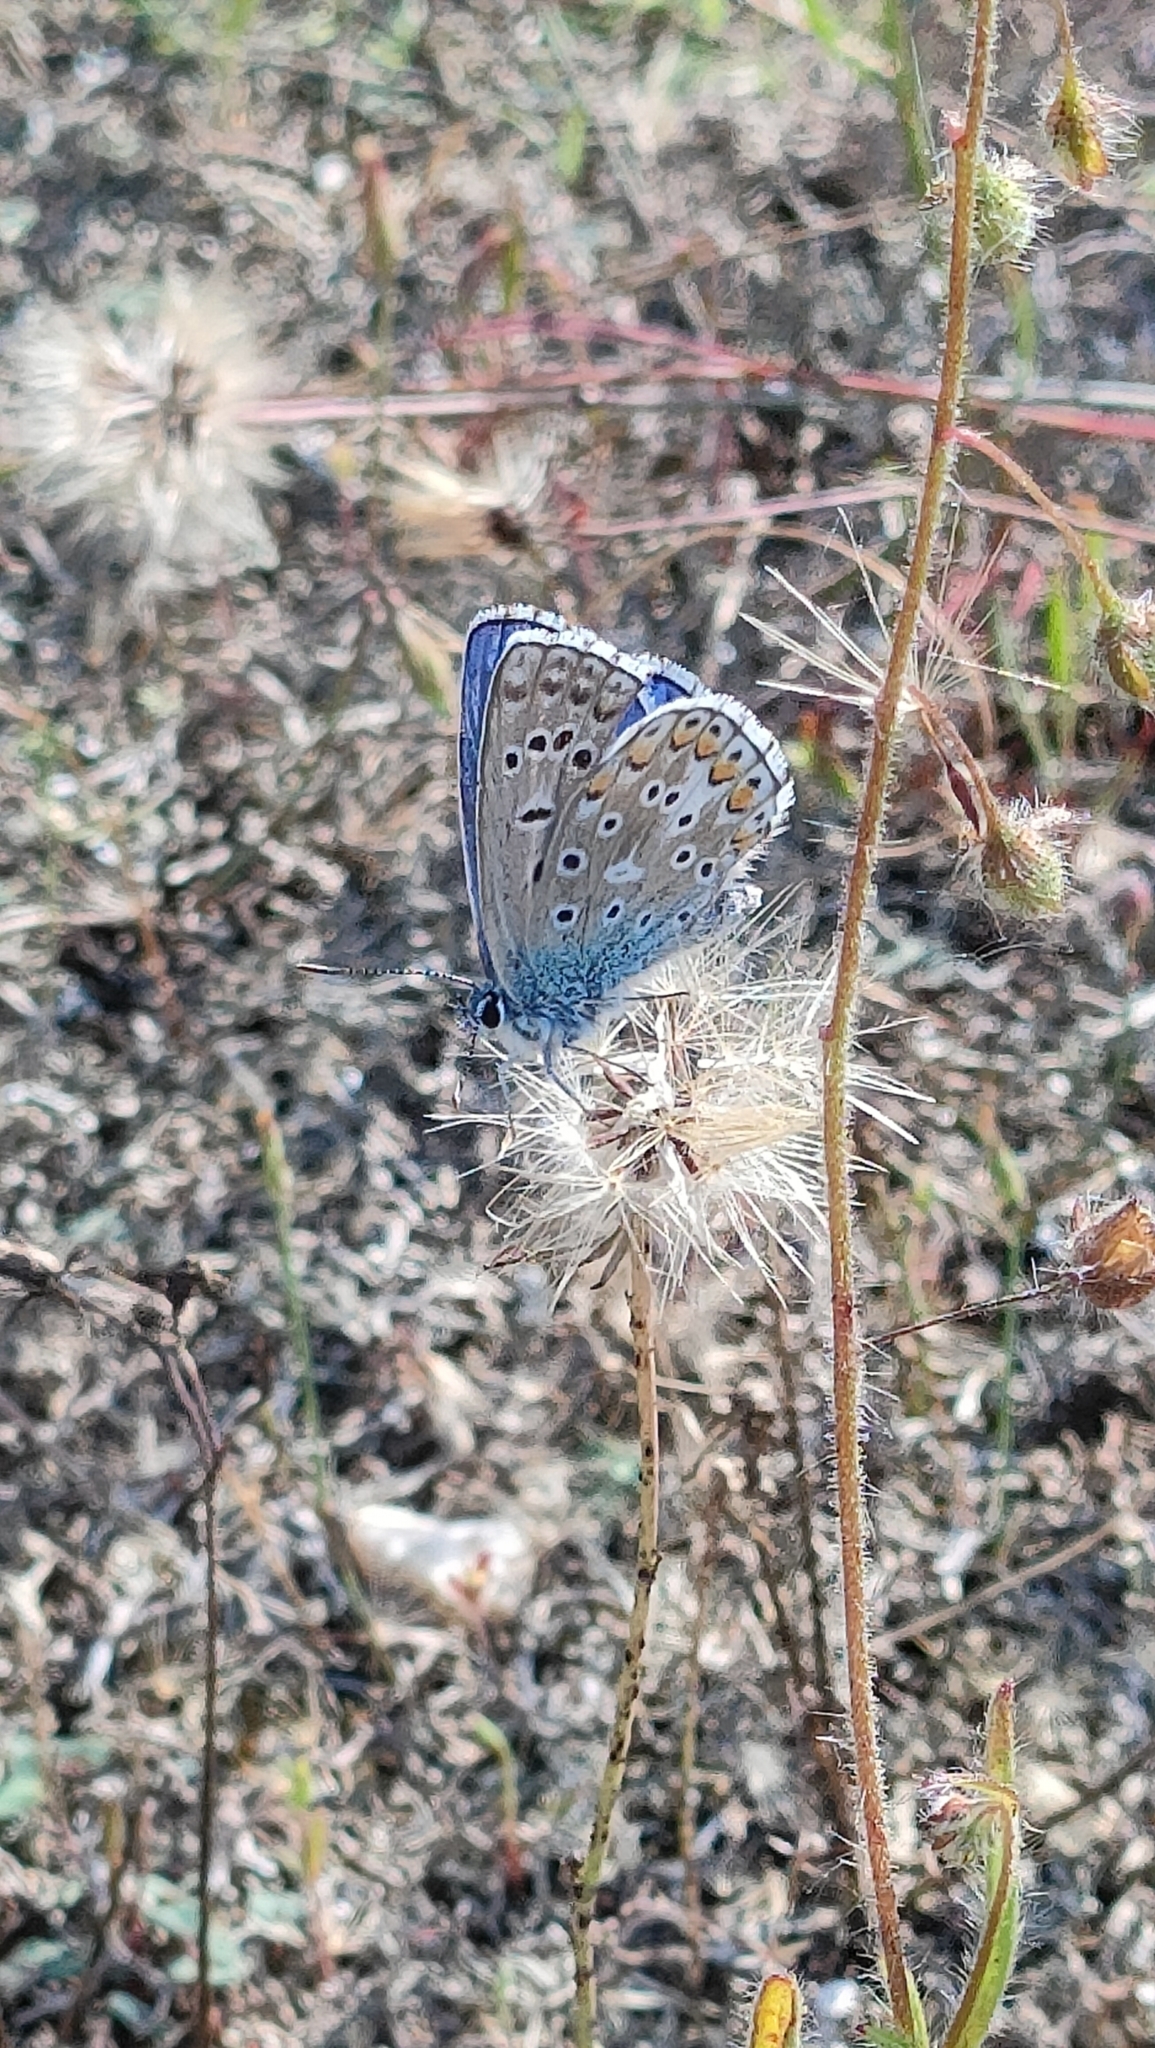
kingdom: Animalia
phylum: Arthropoda
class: Insecta
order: Lepidoptera
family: Lycaenidae
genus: Lysandra
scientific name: Lysandra bellargus
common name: Adonis blue
